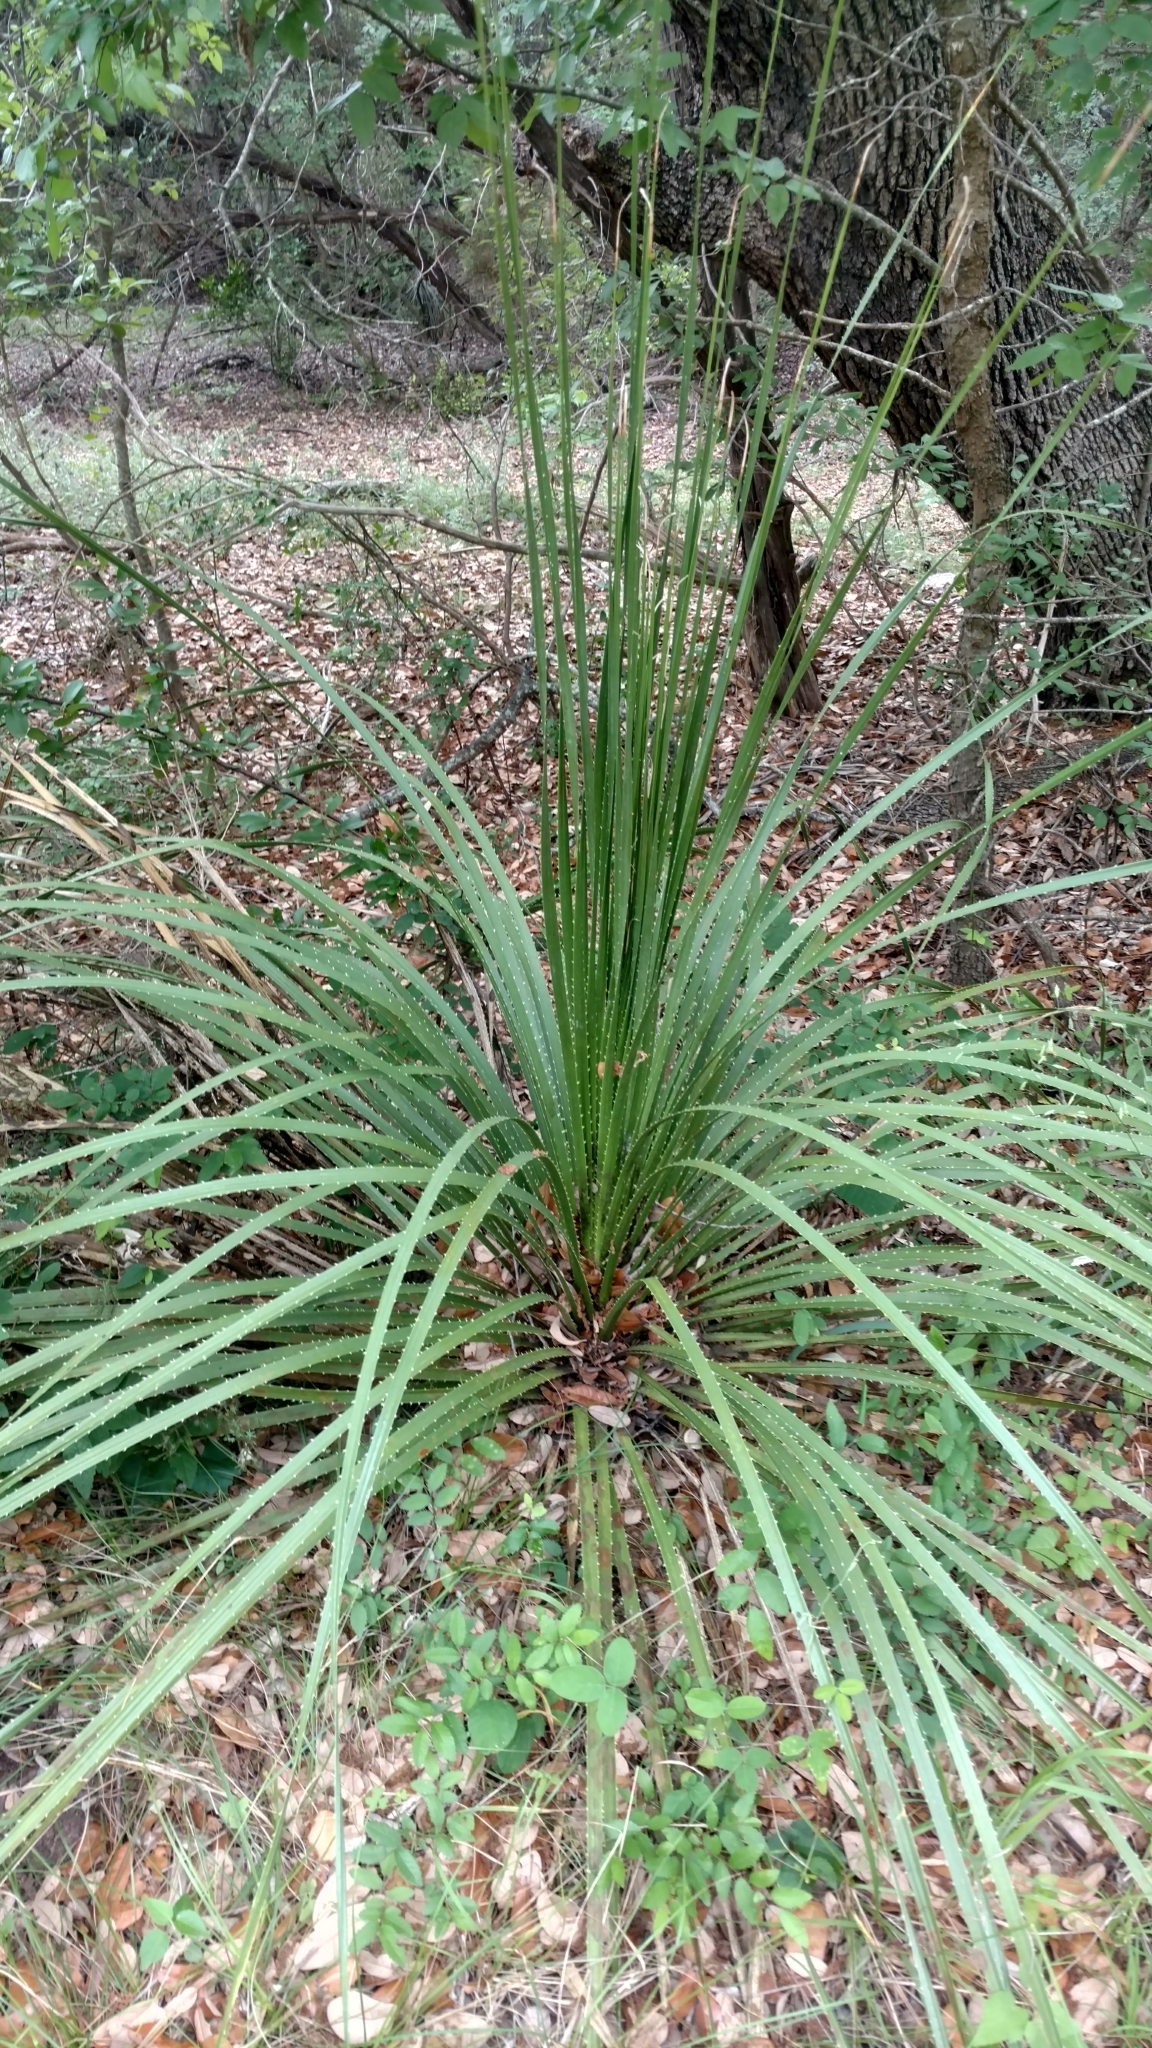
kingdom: Plantae
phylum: Tracheophyta
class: Liliopsida
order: Asparagales
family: Asparagaceae
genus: Dasylirion
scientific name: Dasylirion texanum
